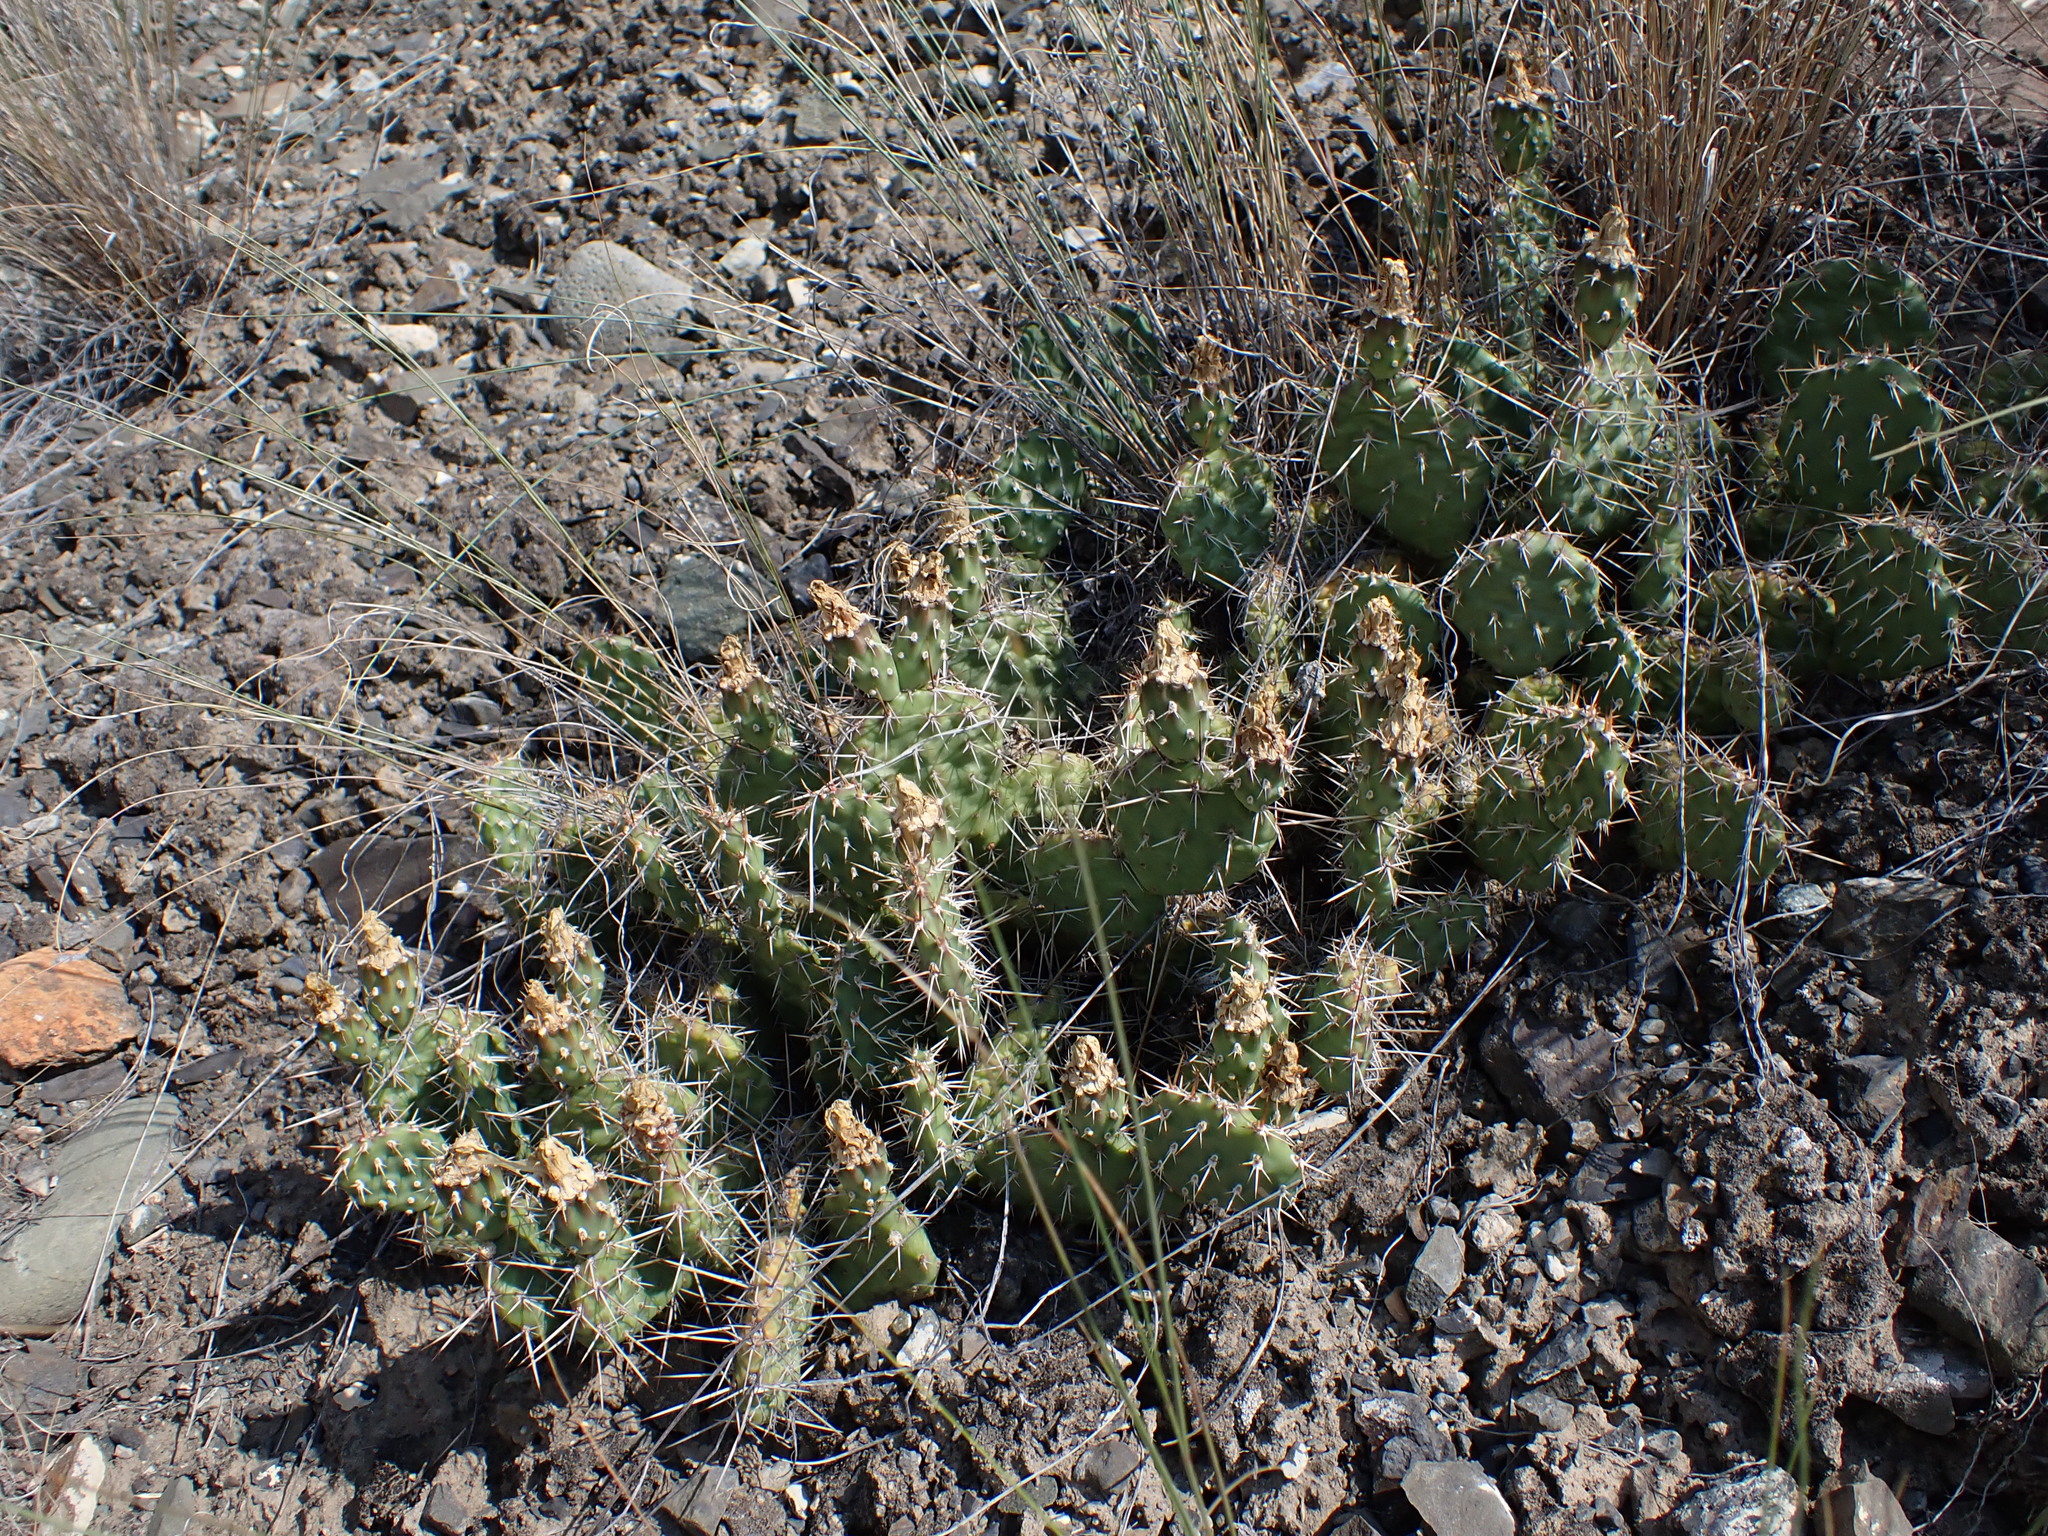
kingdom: Plantae
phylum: Tracheophyta
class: Magnoliopsida
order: Caryophyllales
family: Cactaceae
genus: Opuntia
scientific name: Opuntia columbiana
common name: Columbia prickly-pear
